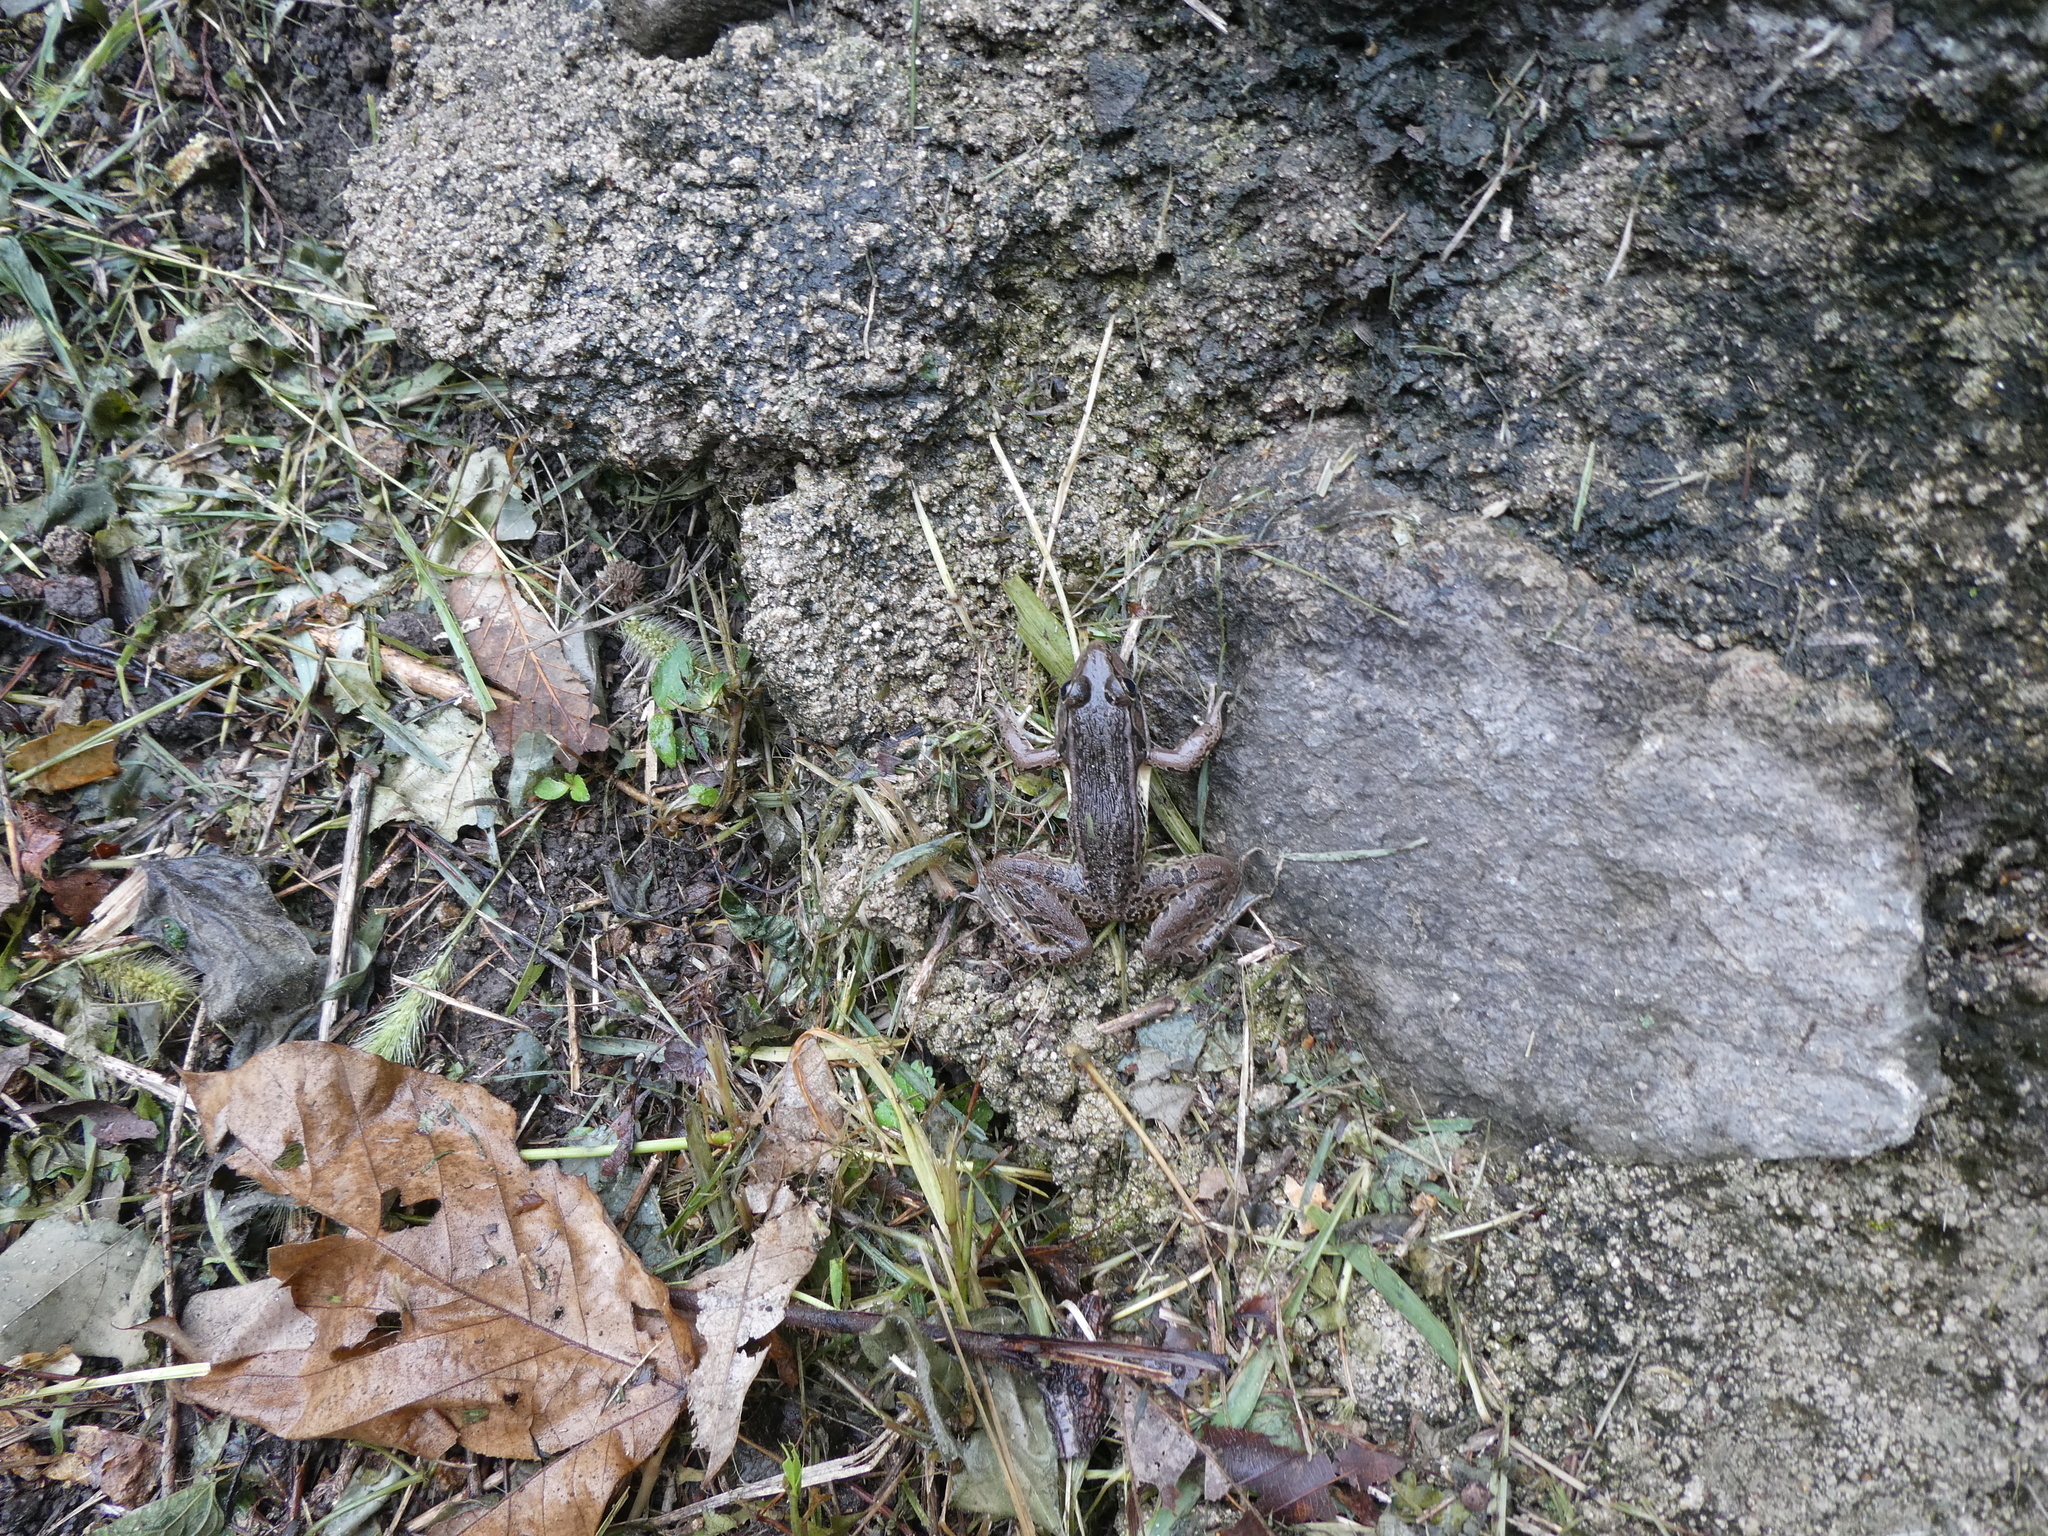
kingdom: Animalia
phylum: Chordata
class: Amphibia
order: Anura
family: Ranidae
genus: Pelophylax
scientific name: Pelophylax nigromaculatus
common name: Black-spotted pond frog
